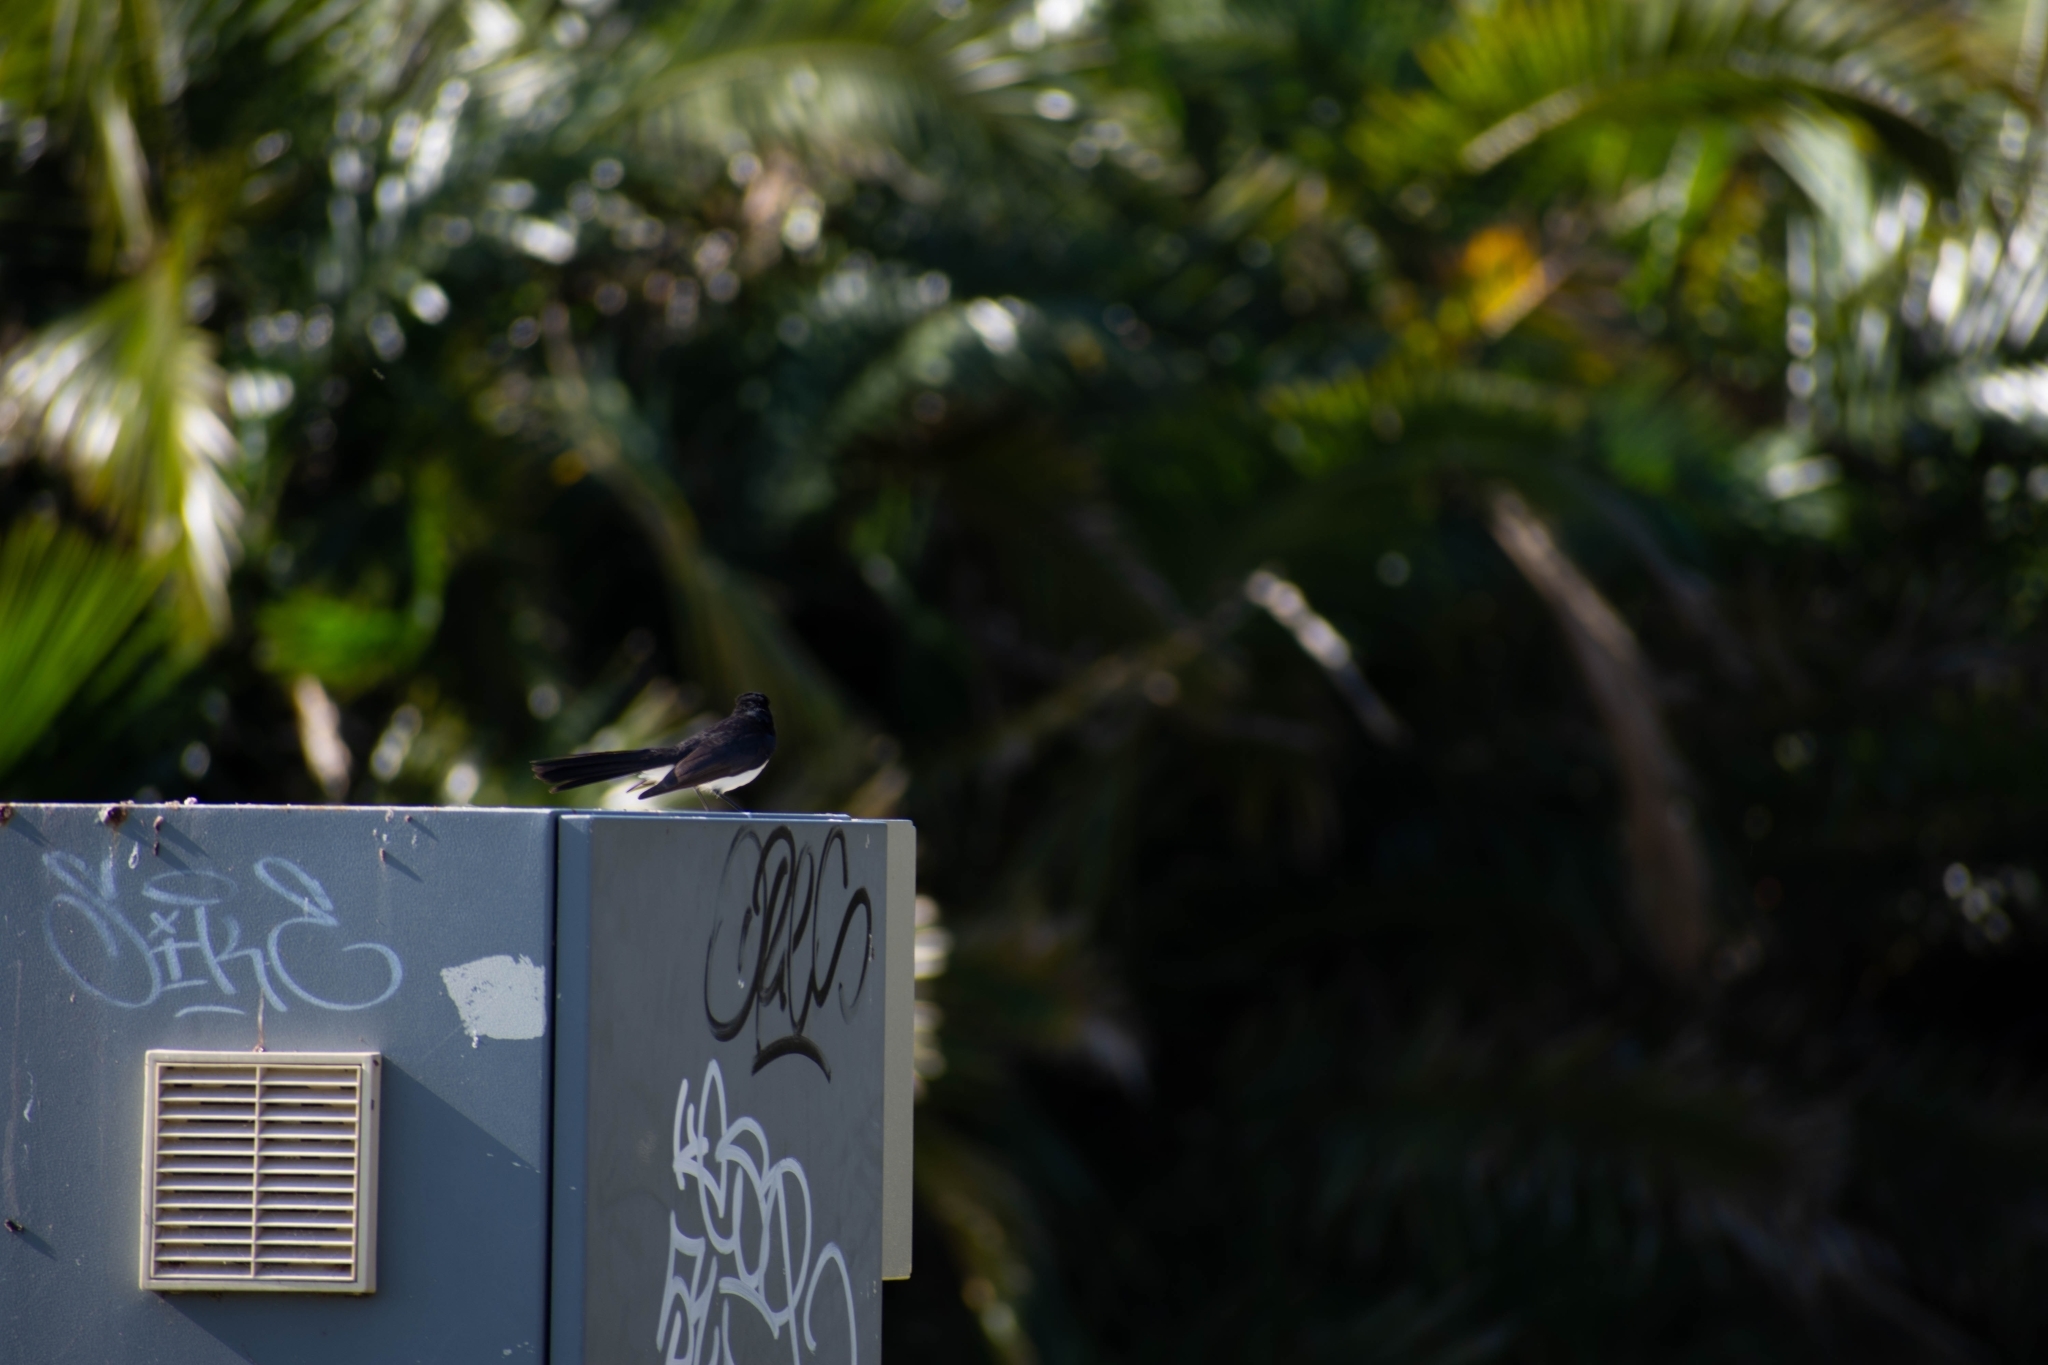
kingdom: Animalia
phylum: Chordata
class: Aves
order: Passeriformes
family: Rhipiduridae
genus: Rhipidura
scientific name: Rhipidura leucophrys
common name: Willie wagtail
